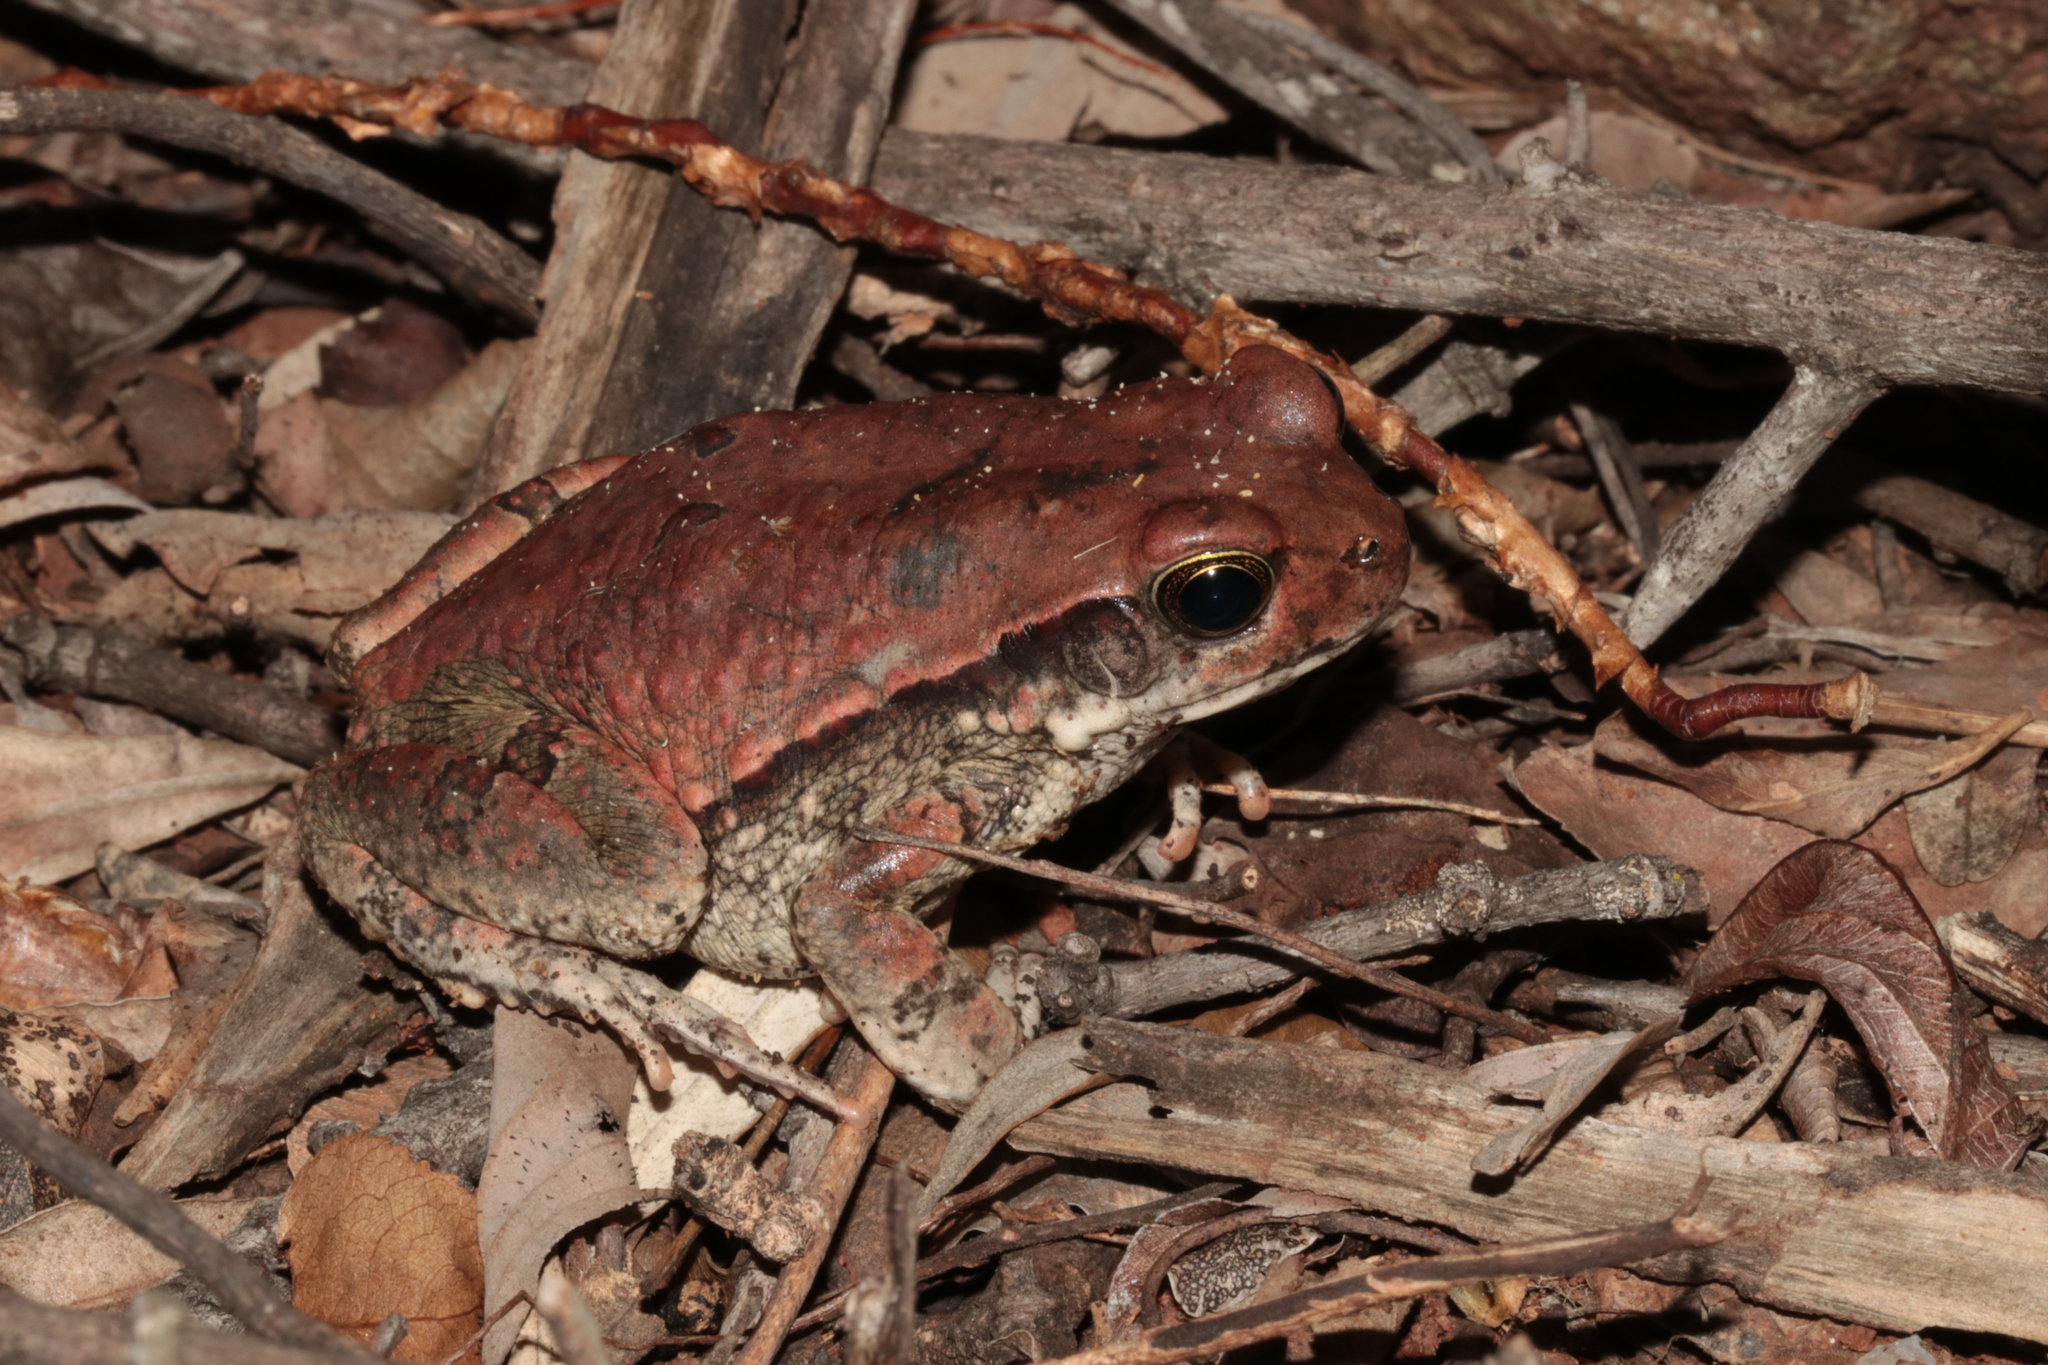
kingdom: Animalia
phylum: Chordata
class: Amphibia
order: Anura
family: Bufonidae
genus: Schismaderma
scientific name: Schismaderma carens
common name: African split-skin toad
